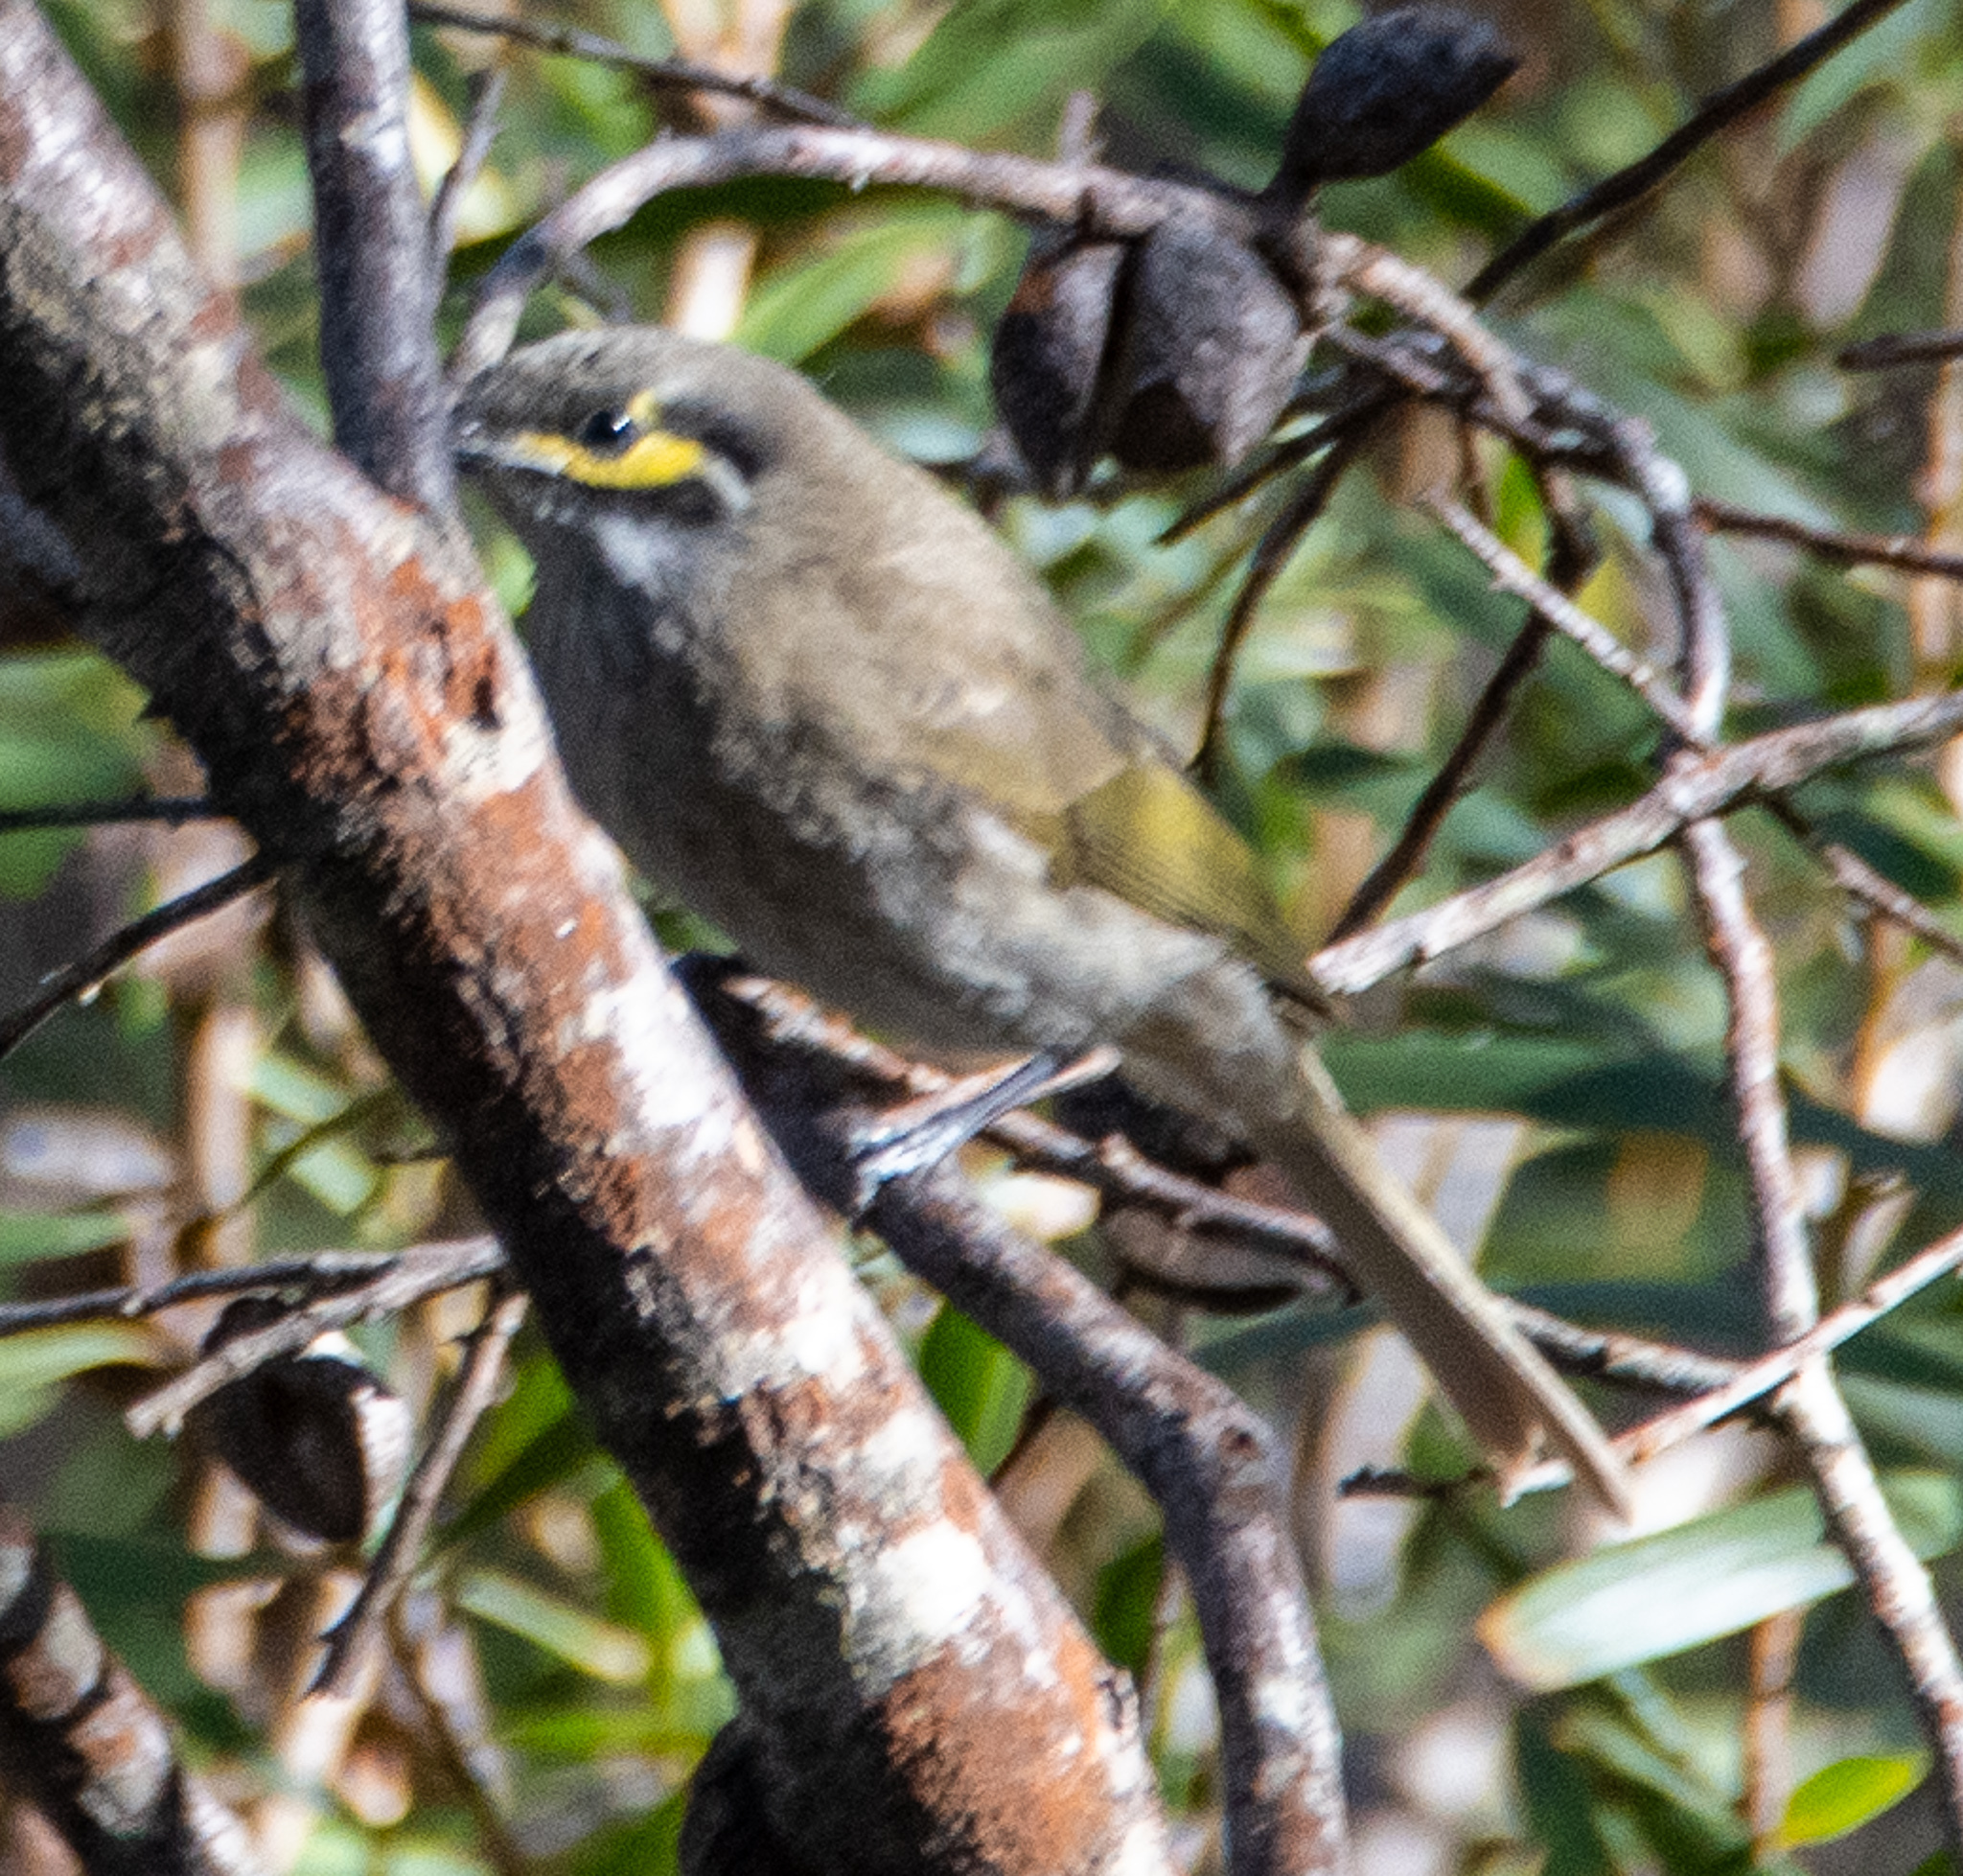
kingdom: Animalia
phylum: Chordata
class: Aves
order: Passeriformes
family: Meliphagidae
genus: Caligavis
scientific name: Caligavis chrysops
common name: Yellow-faced honeyeater
